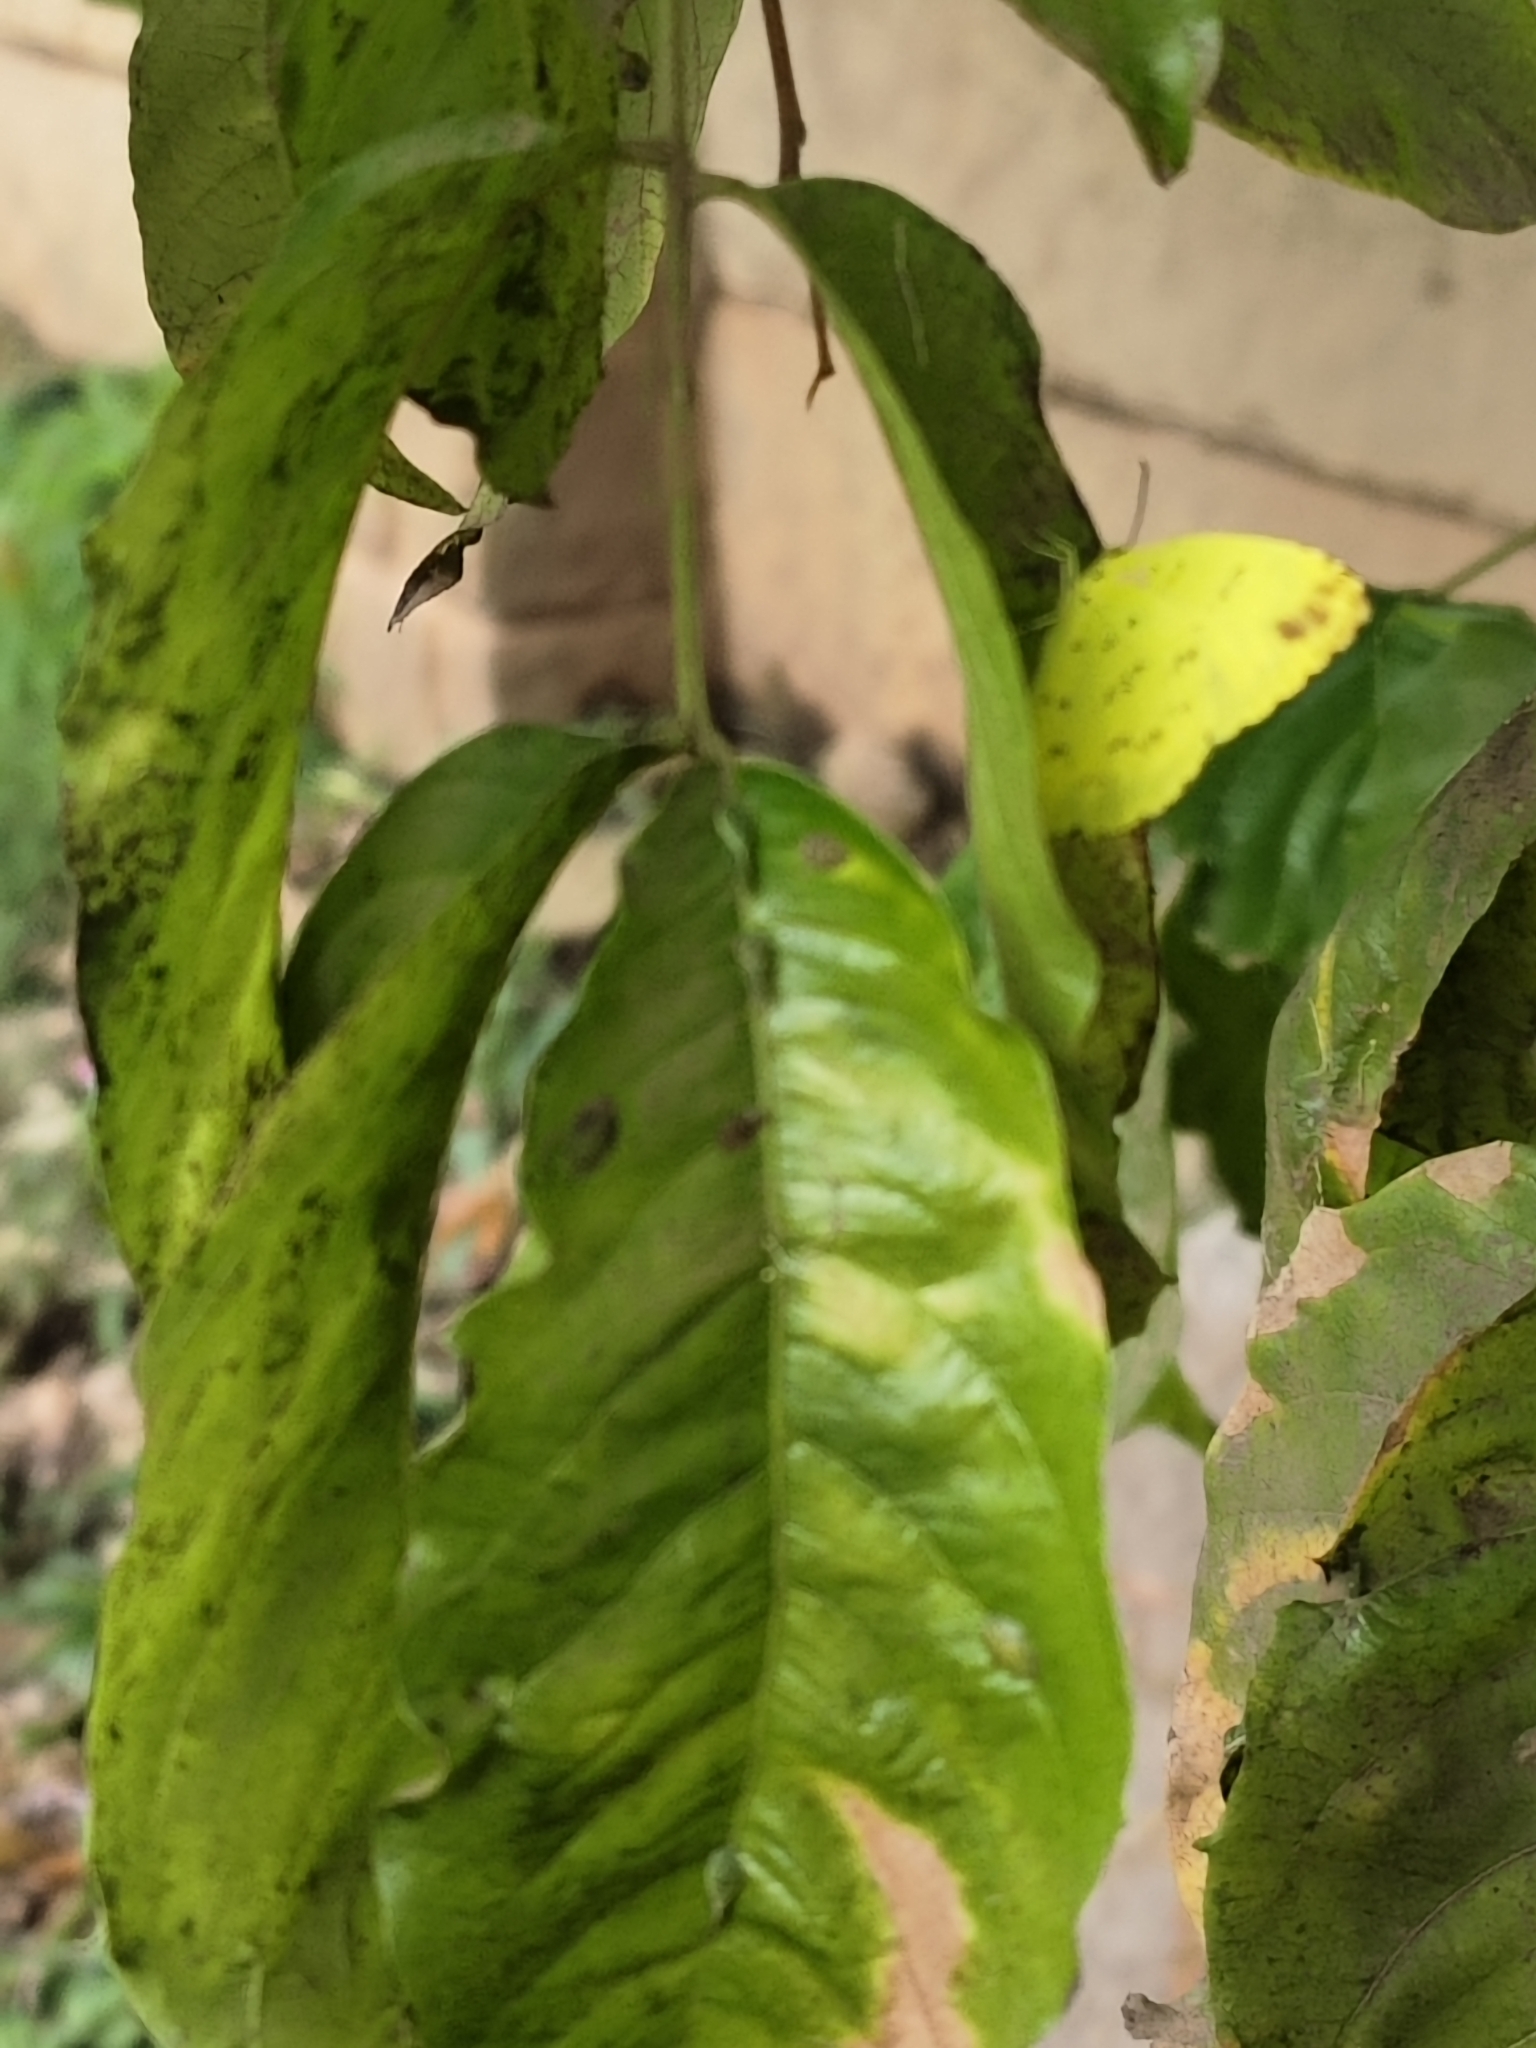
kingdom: Animalia
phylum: Arthropoda
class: Insecta
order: Lepidoptera
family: Pieridae
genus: Eurema
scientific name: Eurema blanda
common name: Three-spot grass yellow
